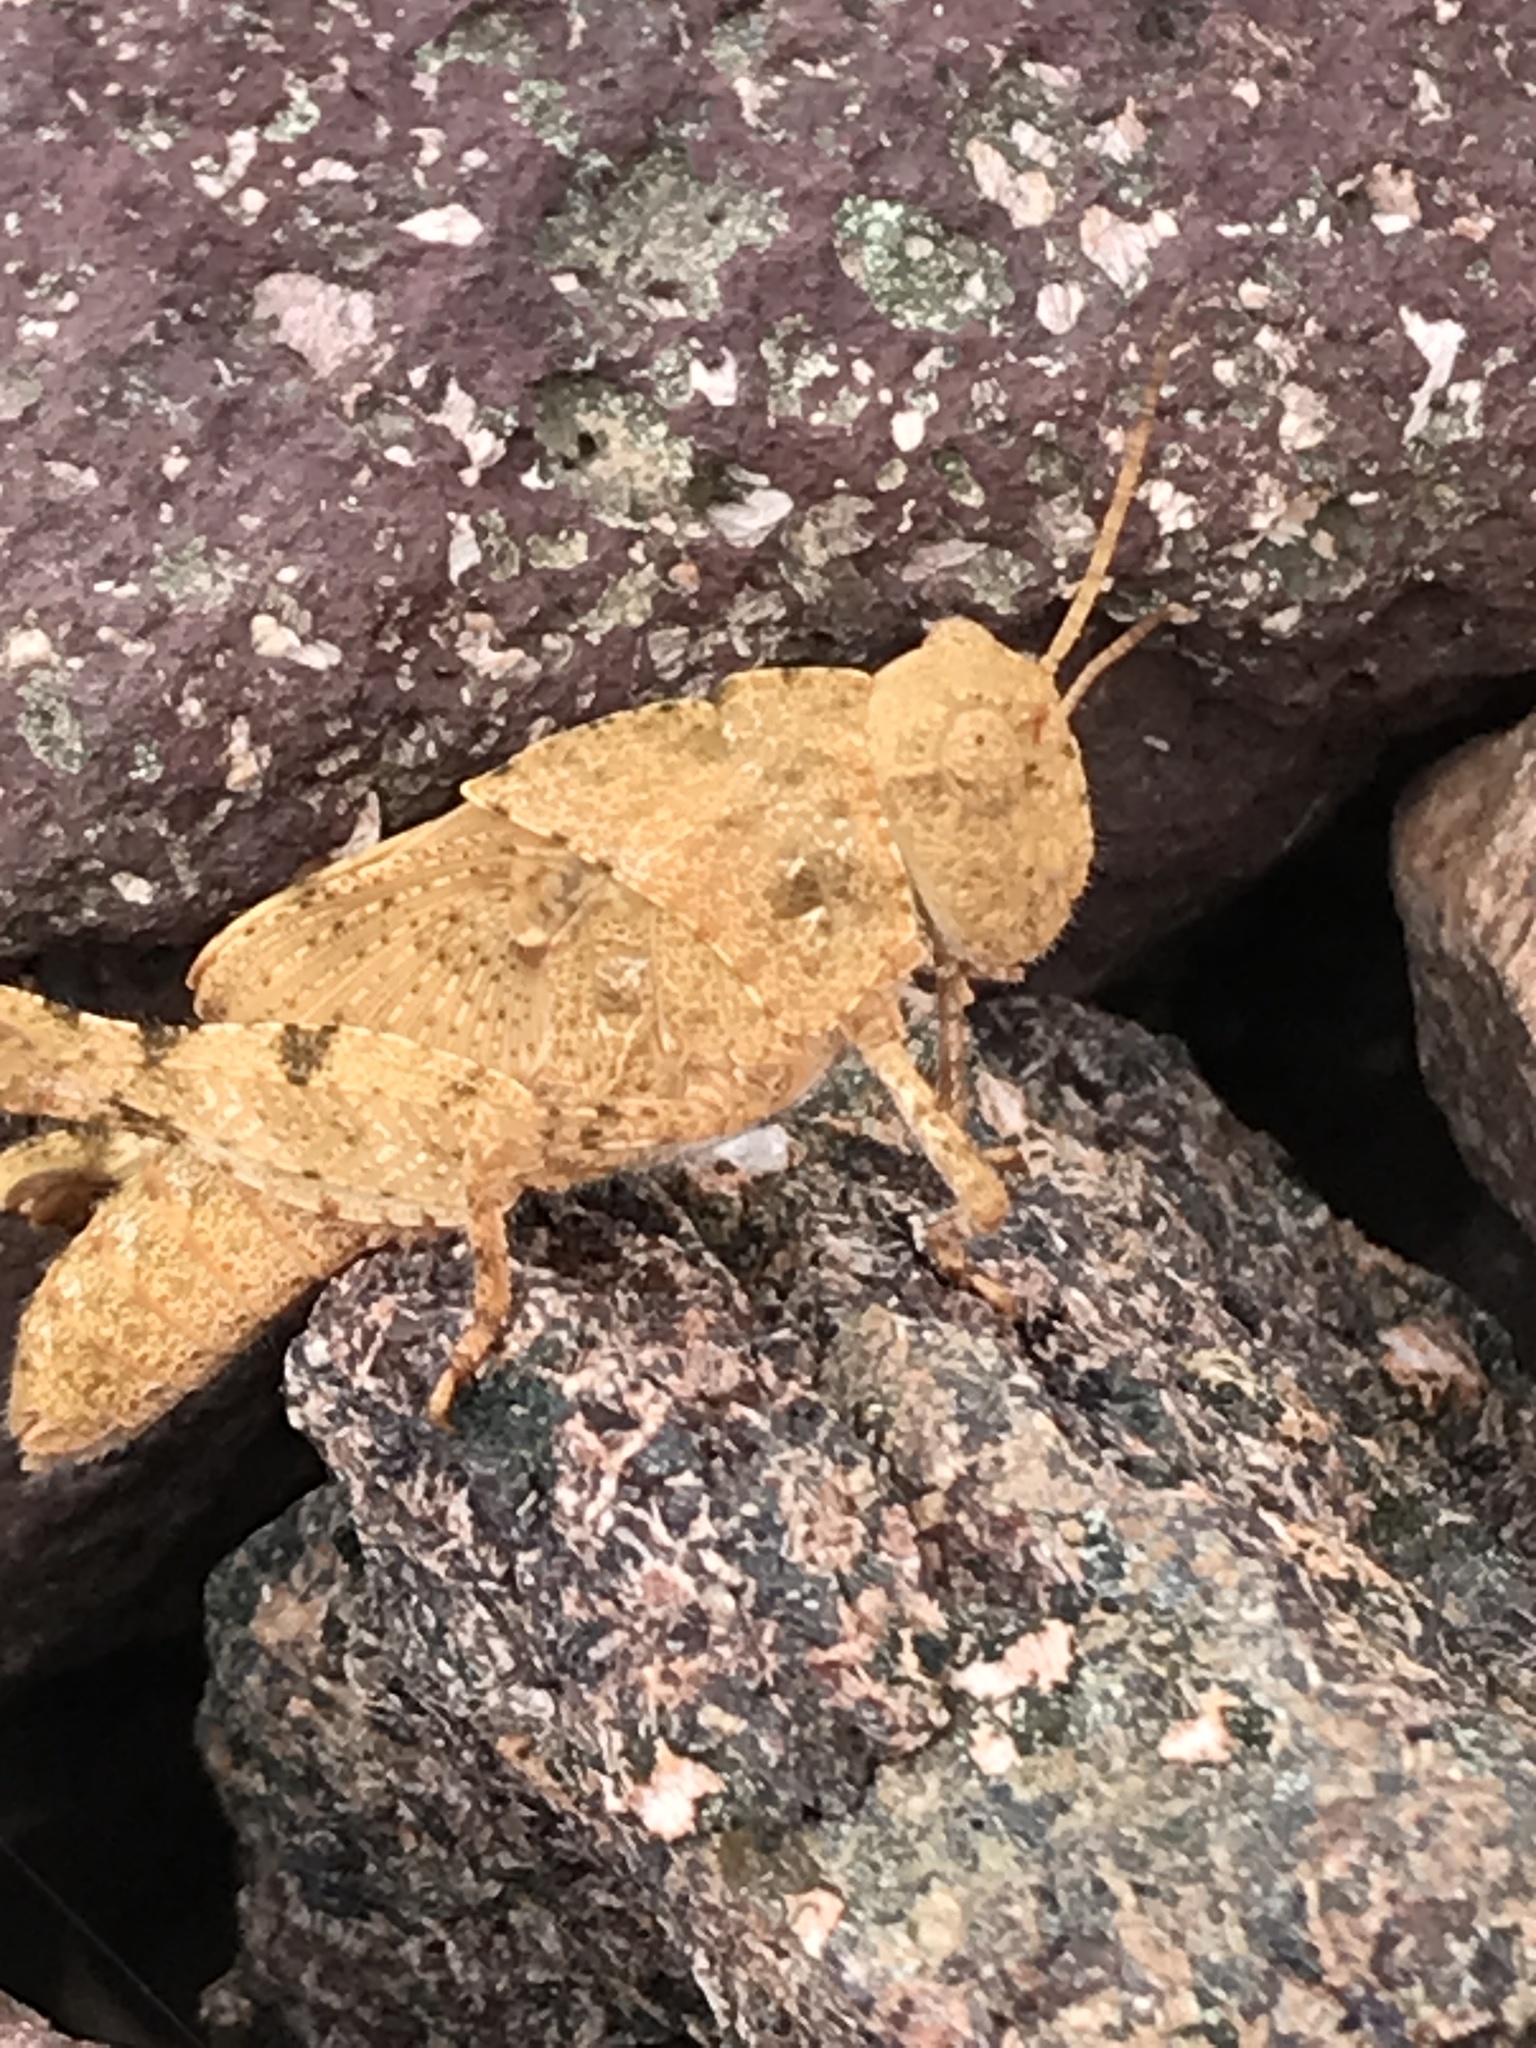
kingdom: Animalia
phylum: Arthropoda
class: Insecta
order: Orthoptera
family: Acrididae
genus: Dissosteira
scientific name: Dissosteira carolina
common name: Carolina grasshopper
